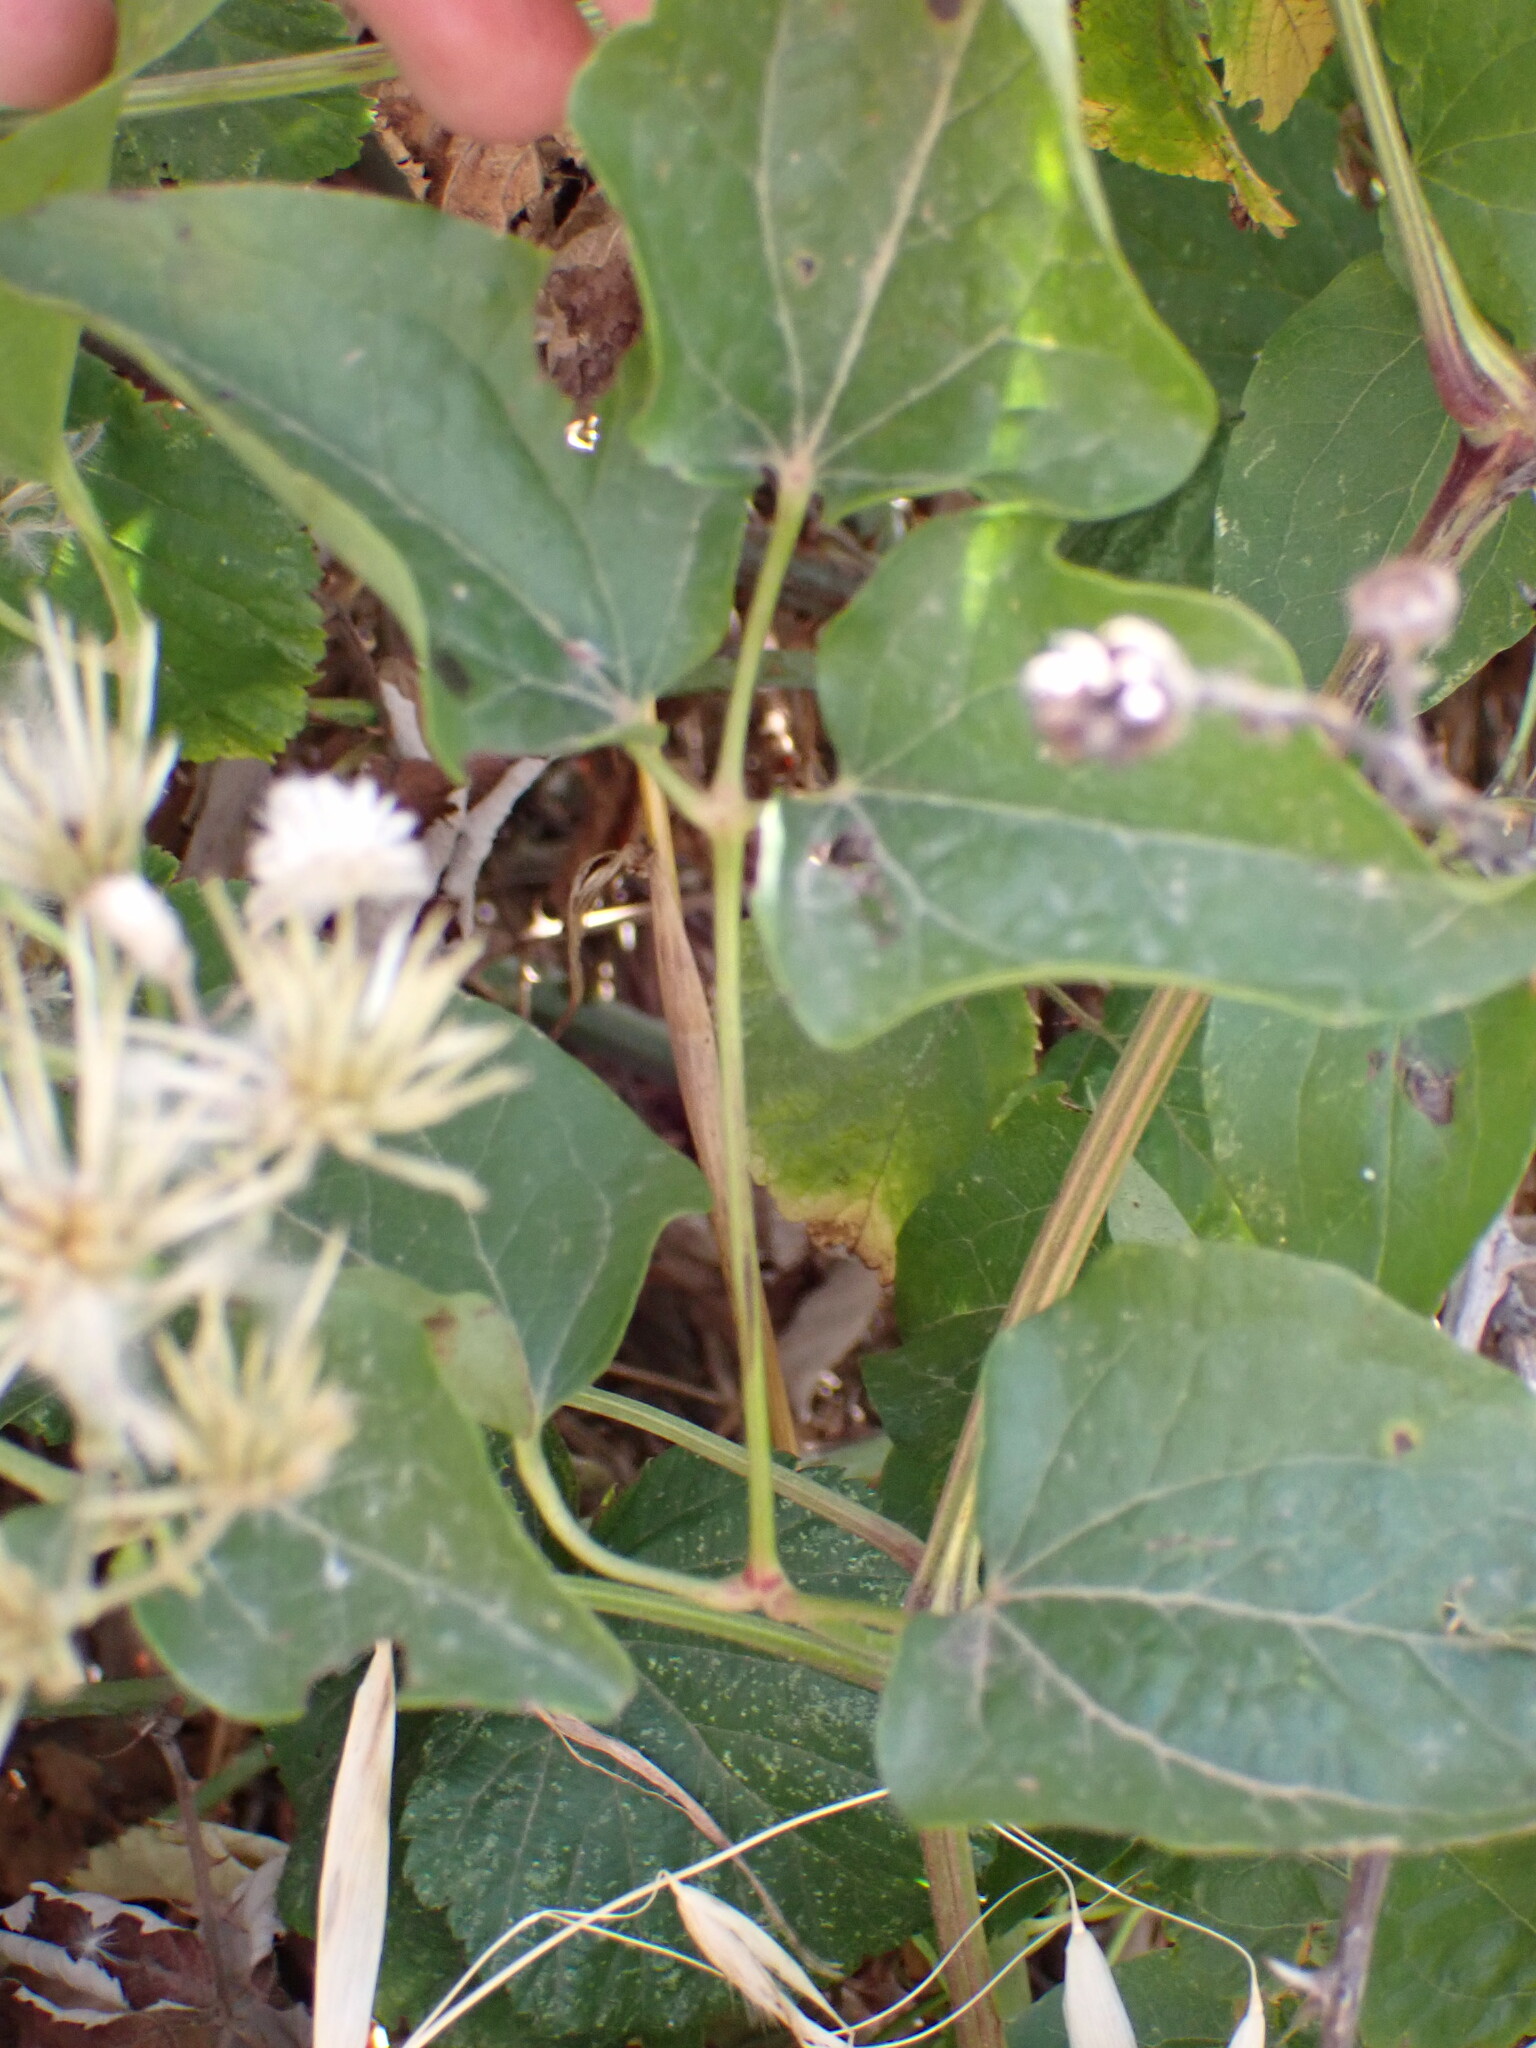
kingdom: Plantae
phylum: Tracheophyta
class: Magnoliopsida
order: Ranunculales
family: Ranunculaceae
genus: Clematis
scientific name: Clematis vitalba
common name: Evergreen clematis
